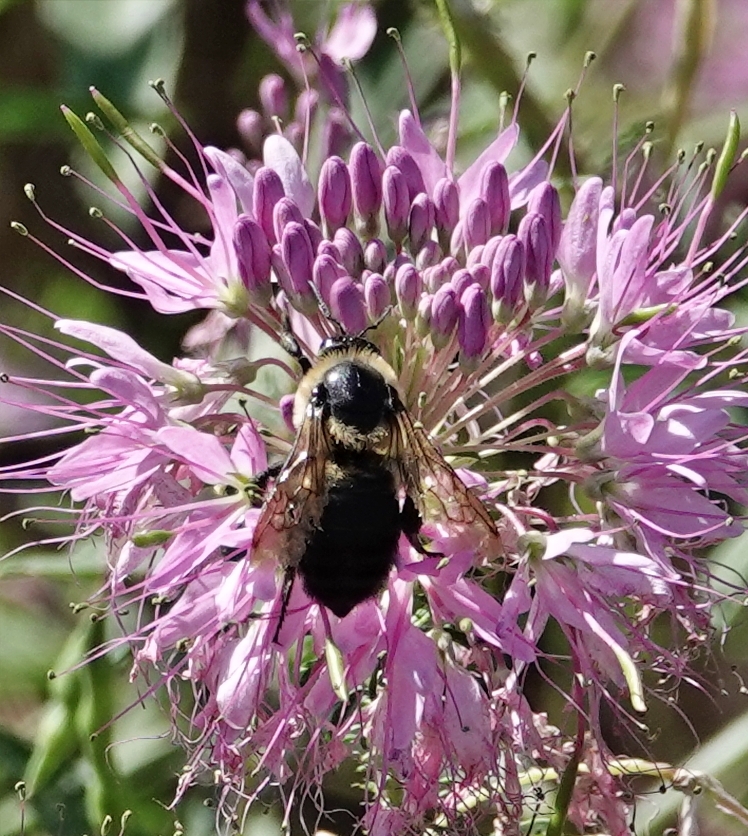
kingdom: Animalia
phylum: Arthropoda
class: Insecta
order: Hymenoptera
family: Apidae
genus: Bombus
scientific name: Bombus griseocollis
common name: Brown-belted bumble bee
